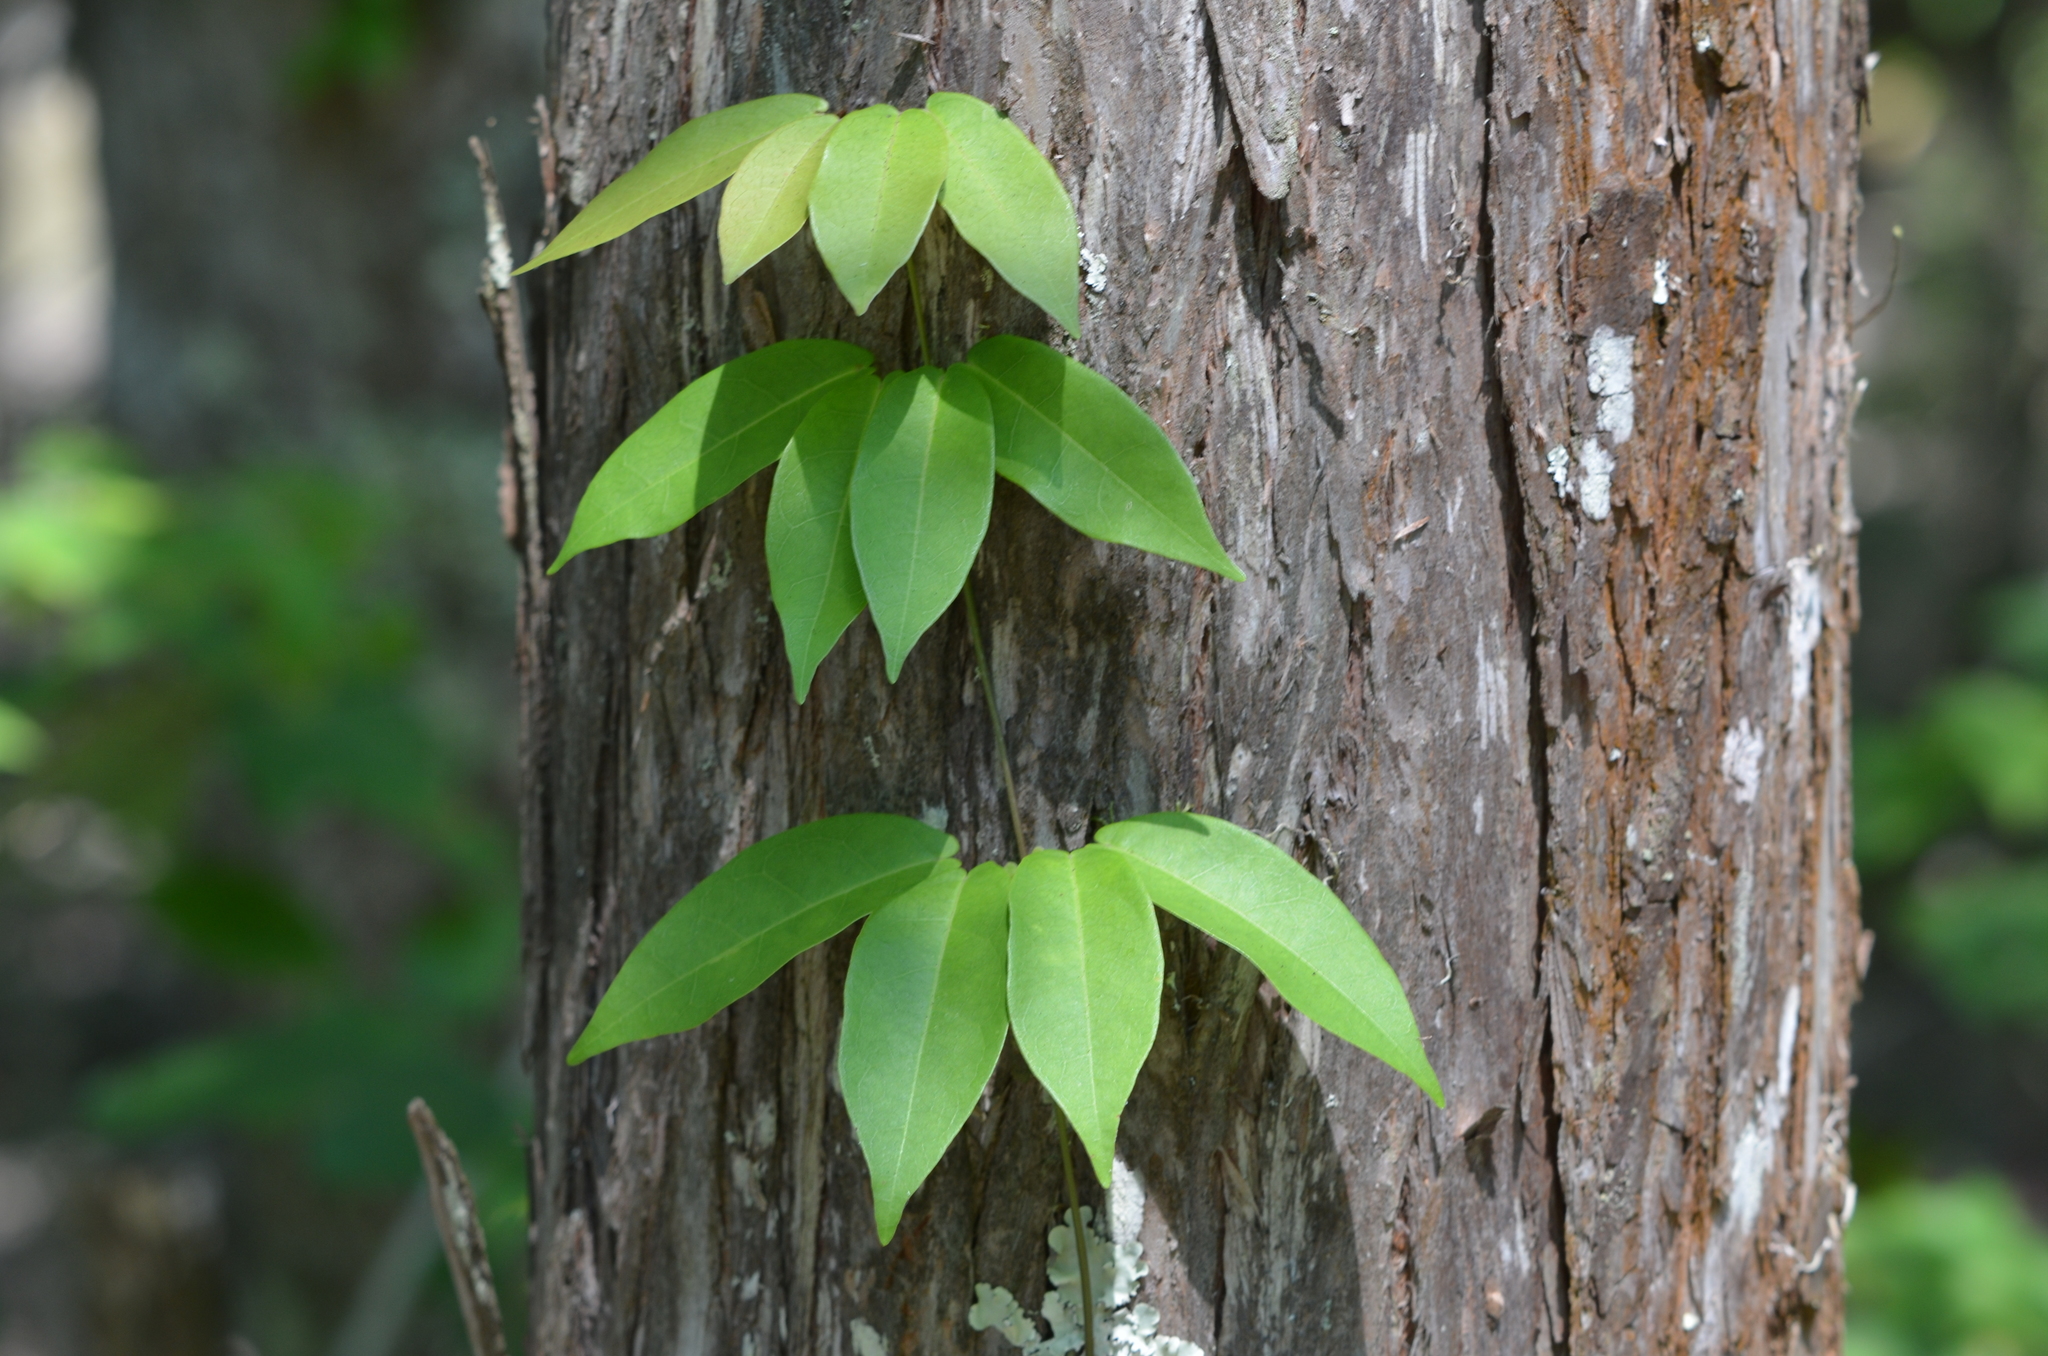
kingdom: Plantae
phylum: Tracheophyta
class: Magnoliopsida
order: Lamiales
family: Bignoniaceae
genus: Bignonia
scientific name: Bignonia capreolata
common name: Crossvine
